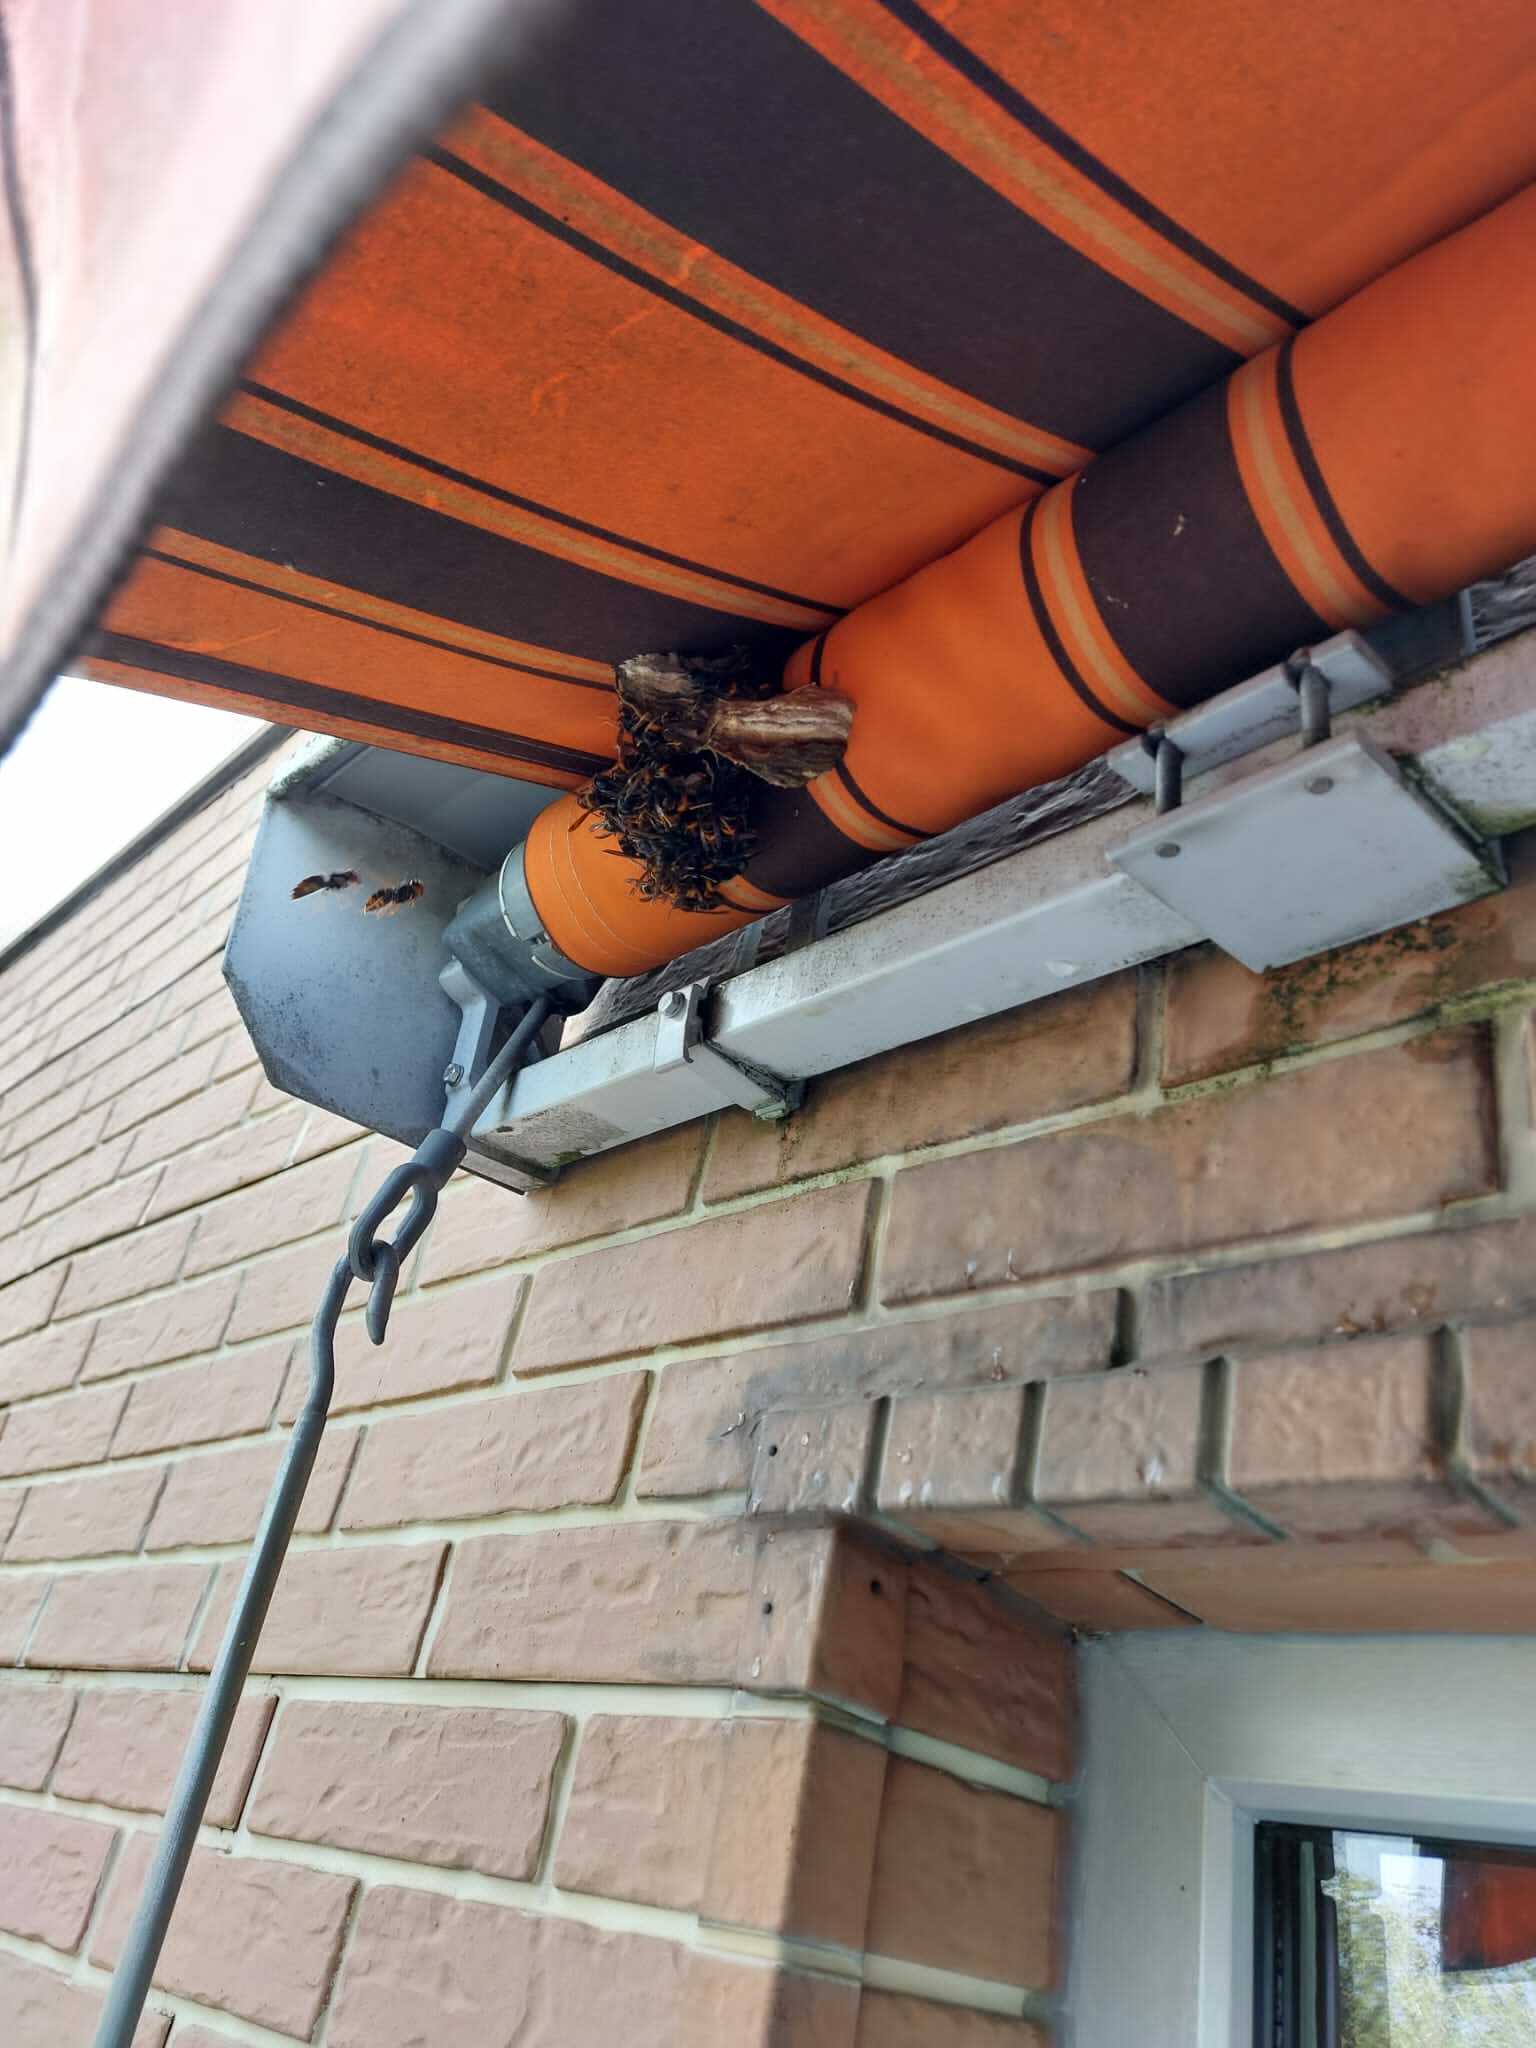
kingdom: Animalia
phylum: Arthropoda
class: Insecta
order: Hymenoptera
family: Vespidae
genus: Vespa
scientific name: Vespa velutina
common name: Asian hornet
